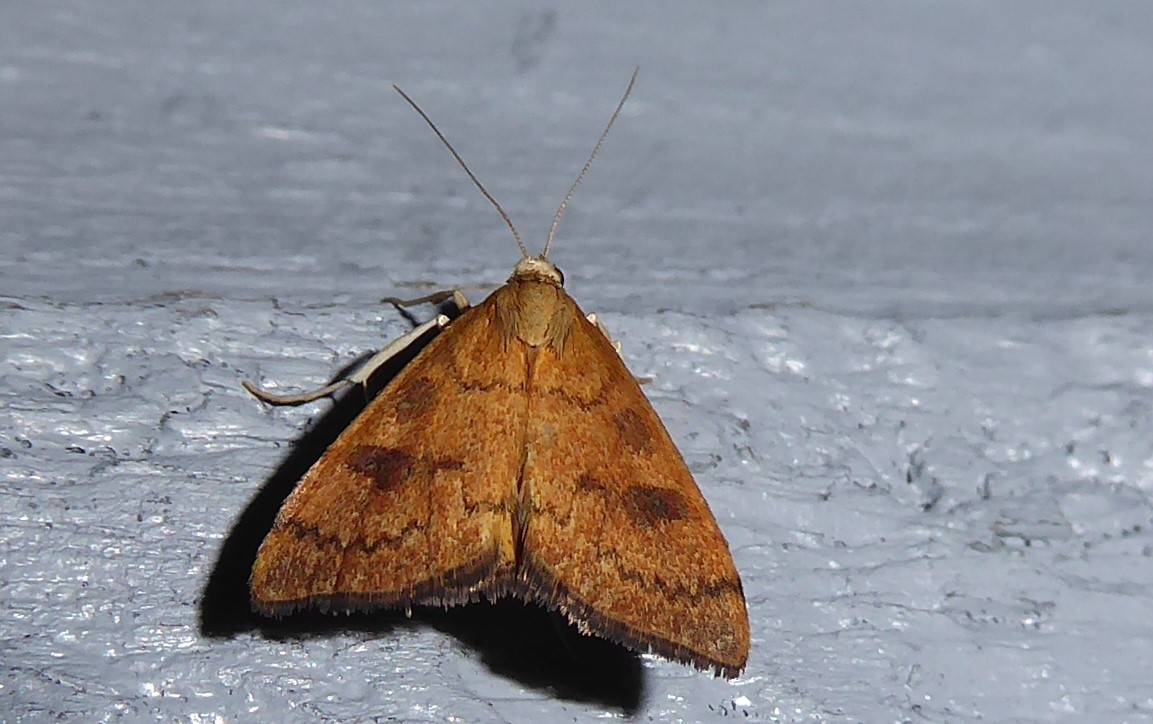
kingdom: Animalia
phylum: Arthropoda
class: Insecta
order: Lepidoptera
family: Crambidae
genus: Udea
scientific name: Udea Mnesictena flavidalis
